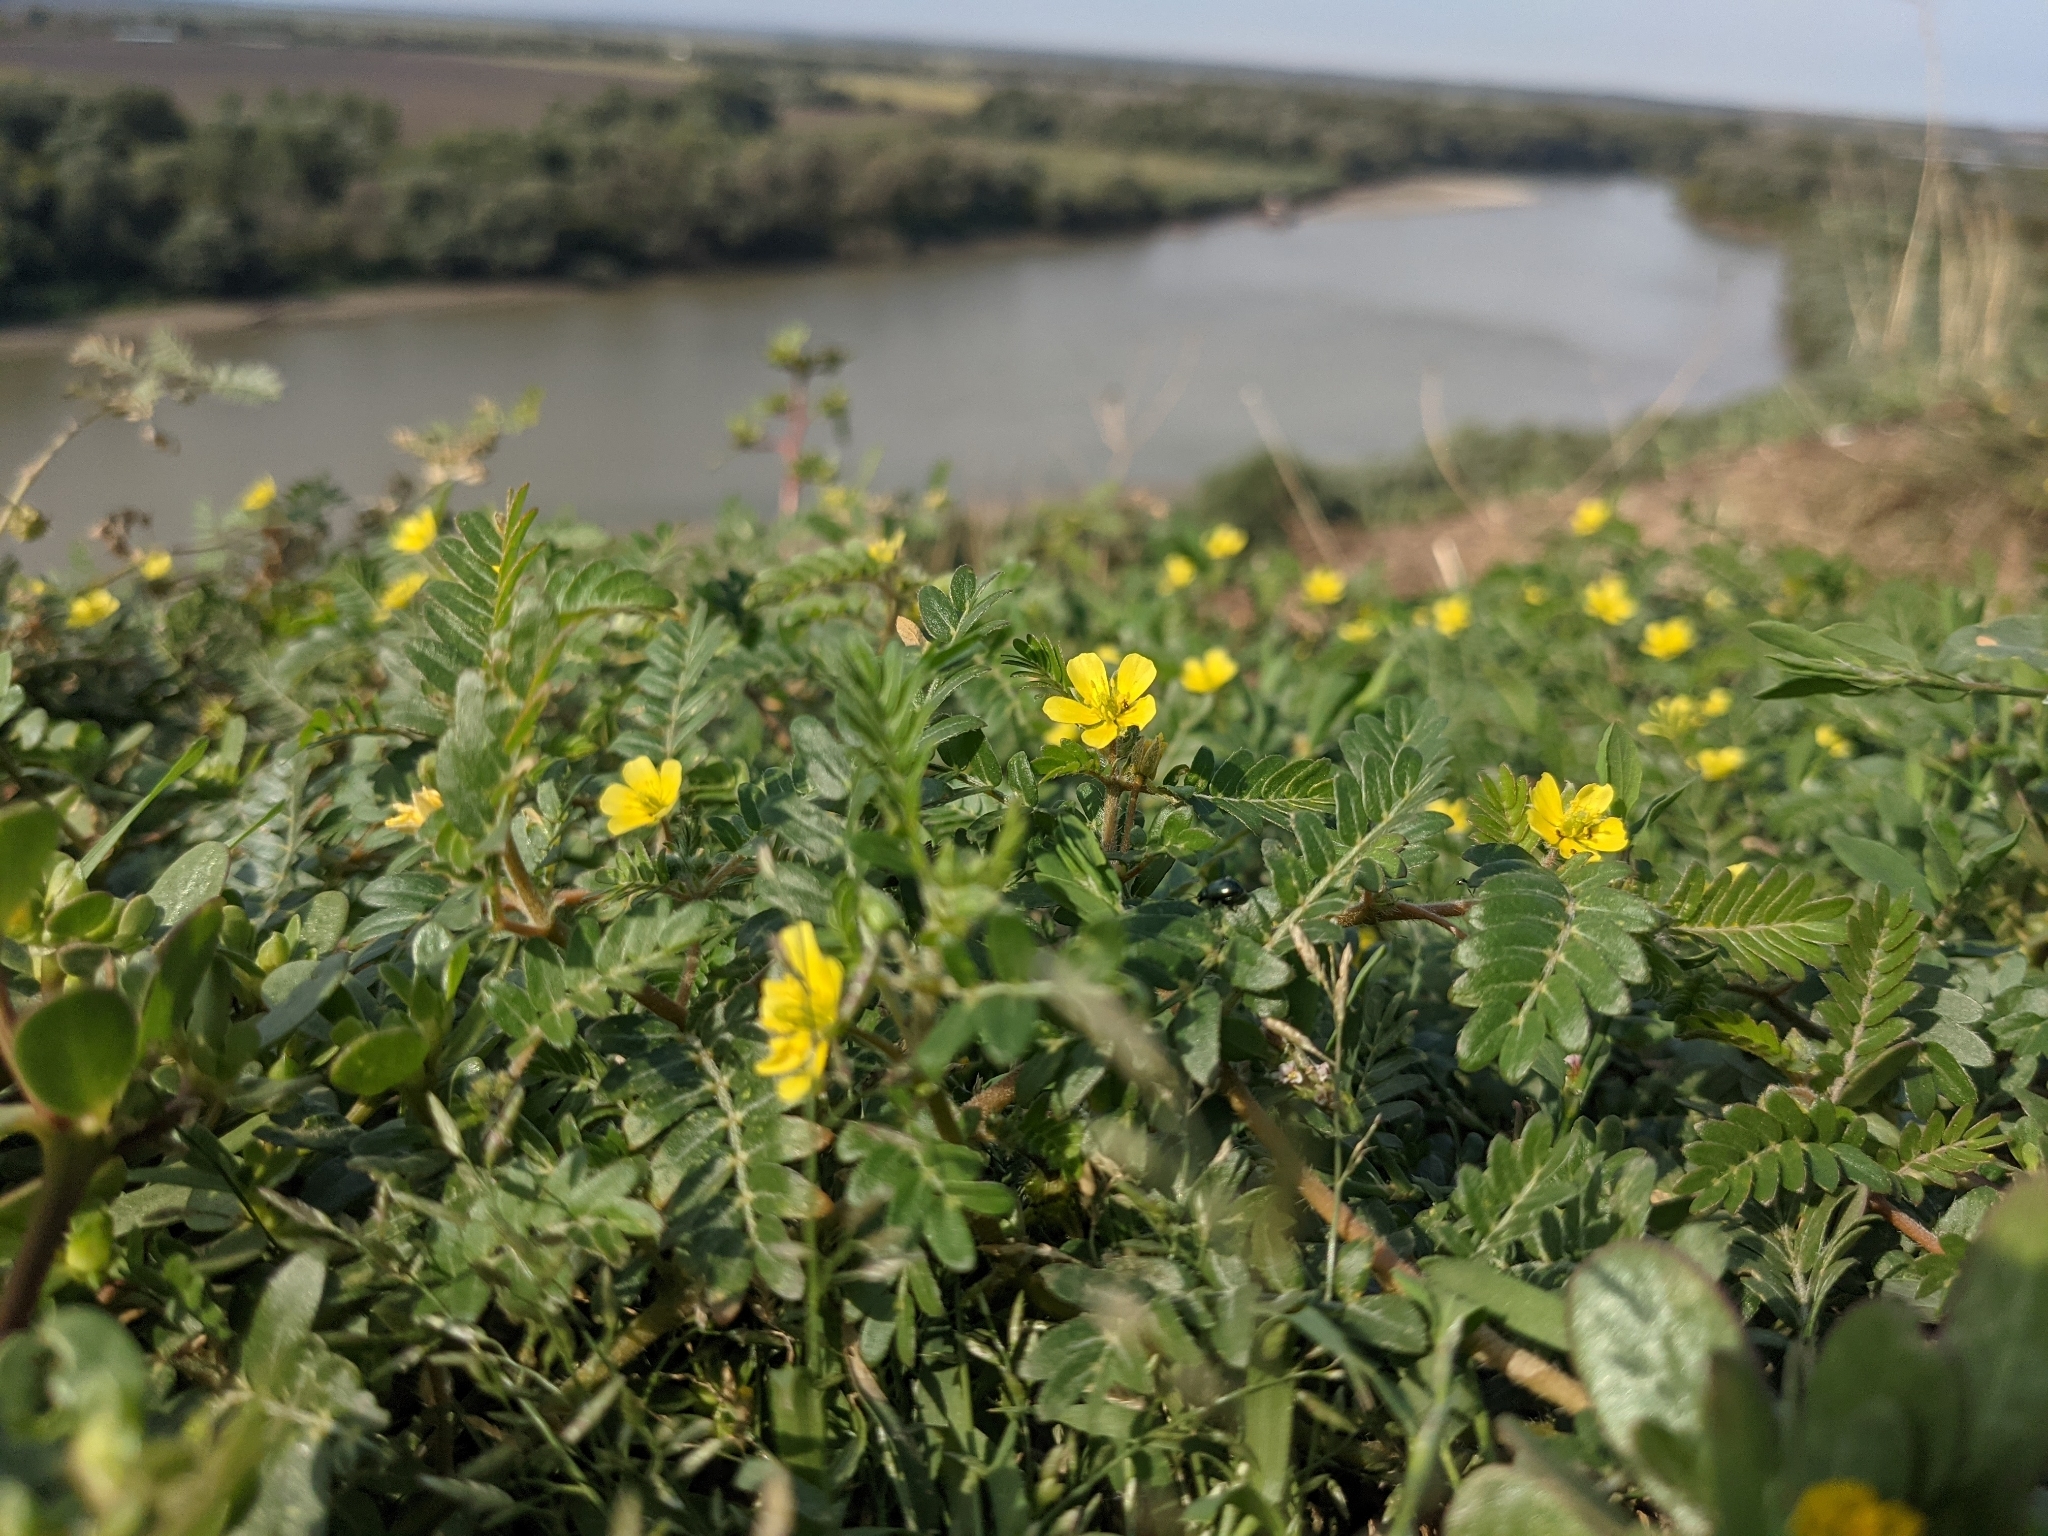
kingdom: Plantae
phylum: Tracheophyta
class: Magnoliopsida
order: Zygophyllales
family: Zygophyllaceae
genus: Tribulus
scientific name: Tribulus terrestris
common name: Puncturevine
